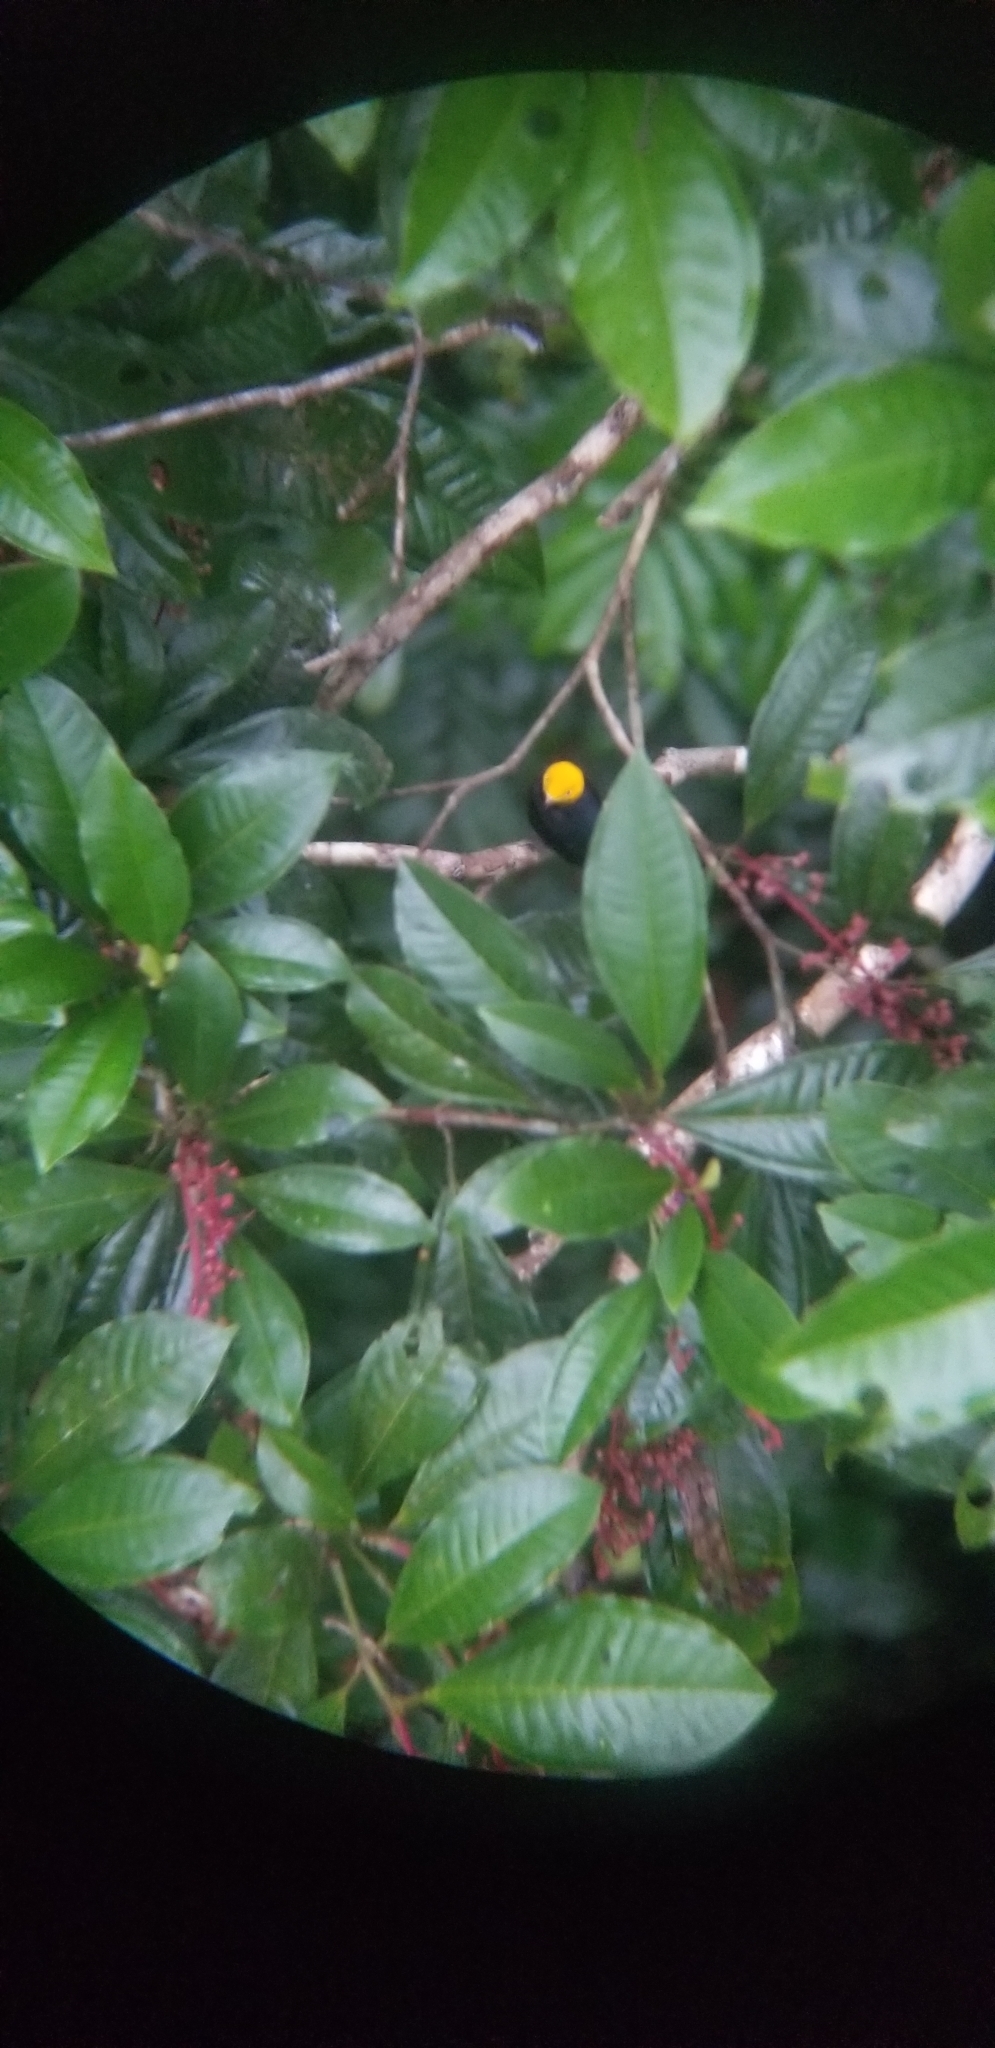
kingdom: Animalia
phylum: Chordata
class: Aves
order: Passeriformes
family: Pipridae
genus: Pipra
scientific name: Pipra erythrocephala
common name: Golden-headed manakin
